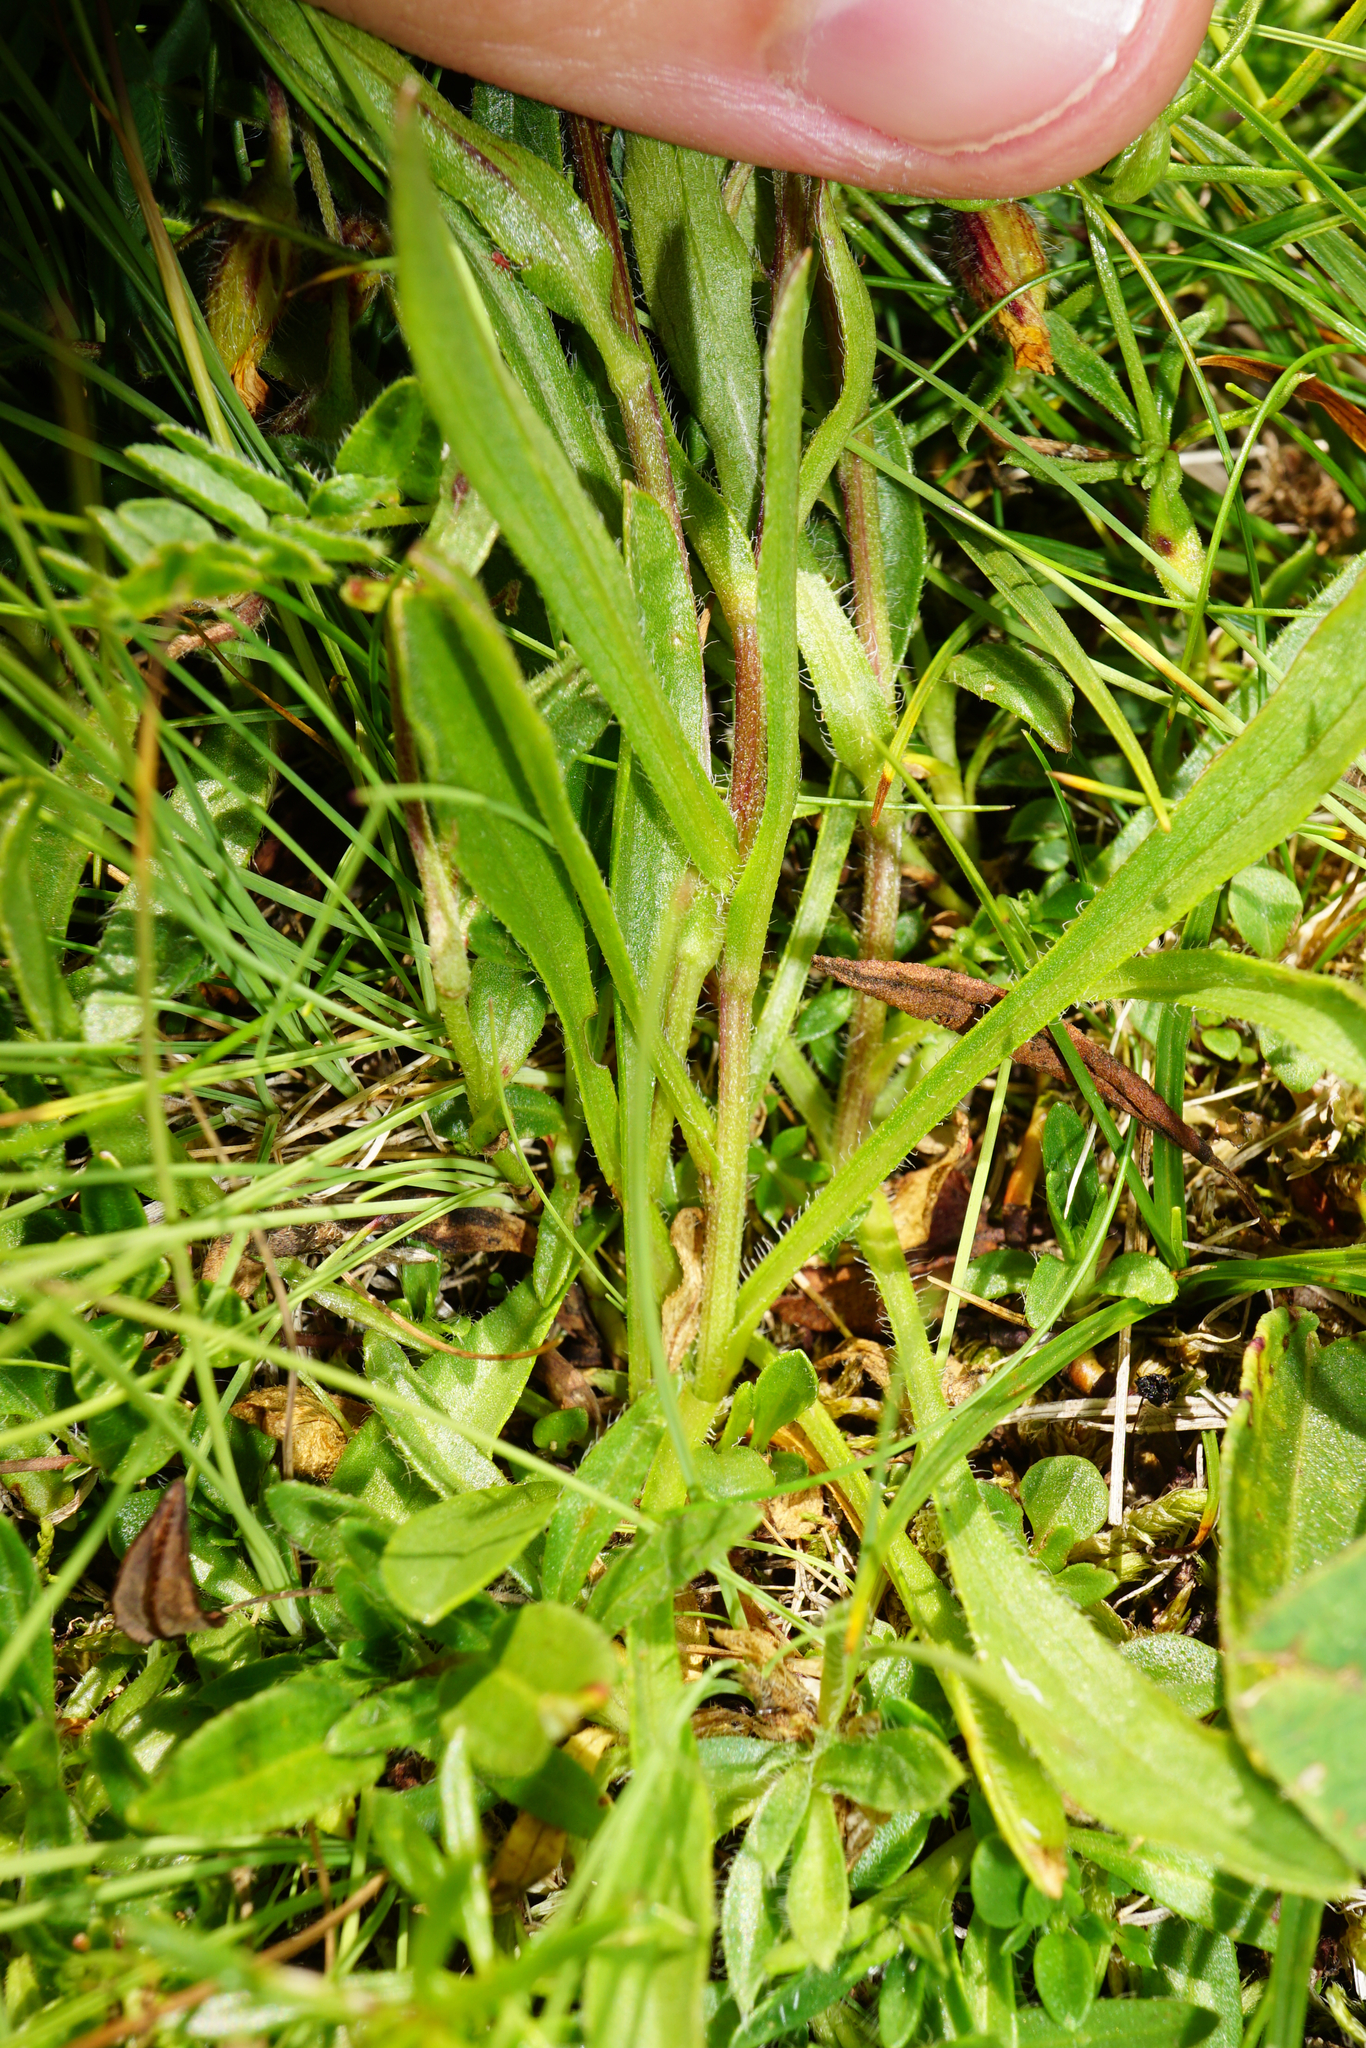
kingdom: Plantae
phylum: Tracheophyta
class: Magnoliopsida
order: Asterales
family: Asteraceae
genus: Erigeron
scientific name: Erigeron glabratus
